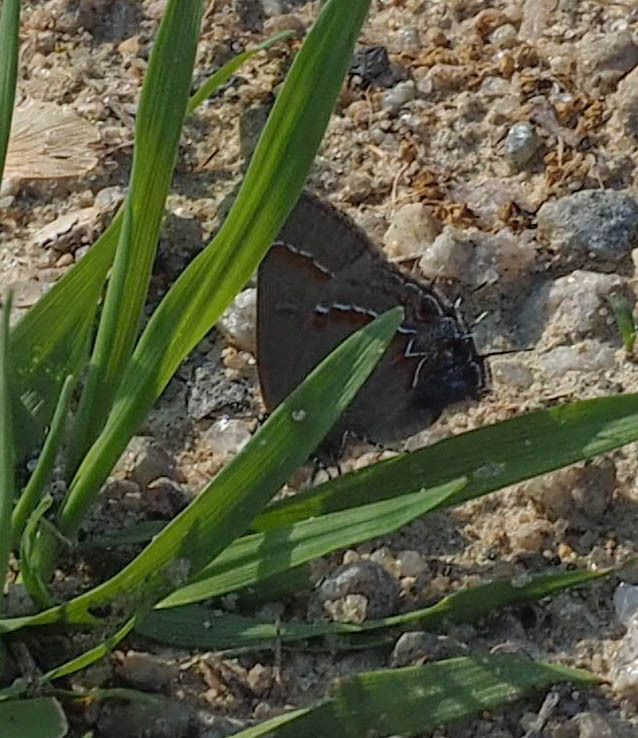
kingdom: Animalia
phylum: Arthropoda
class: Insecta
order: Lepidoptera
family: Lycaenidae
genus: Calycopis
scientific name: Calycopis cecrops
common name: Red-banded hairstreak
